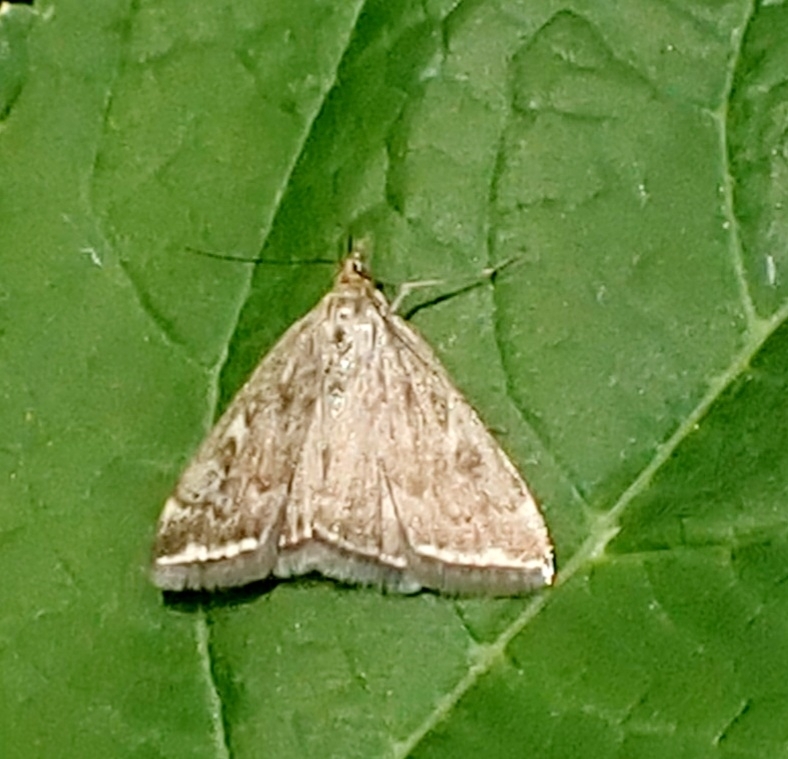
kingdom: Animalia
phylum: Arthropoda
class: Insecta
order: Lepidoptera
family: Crambidae
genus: Loxostege
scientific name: Loxostege sticticalis
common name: Crambid moth
